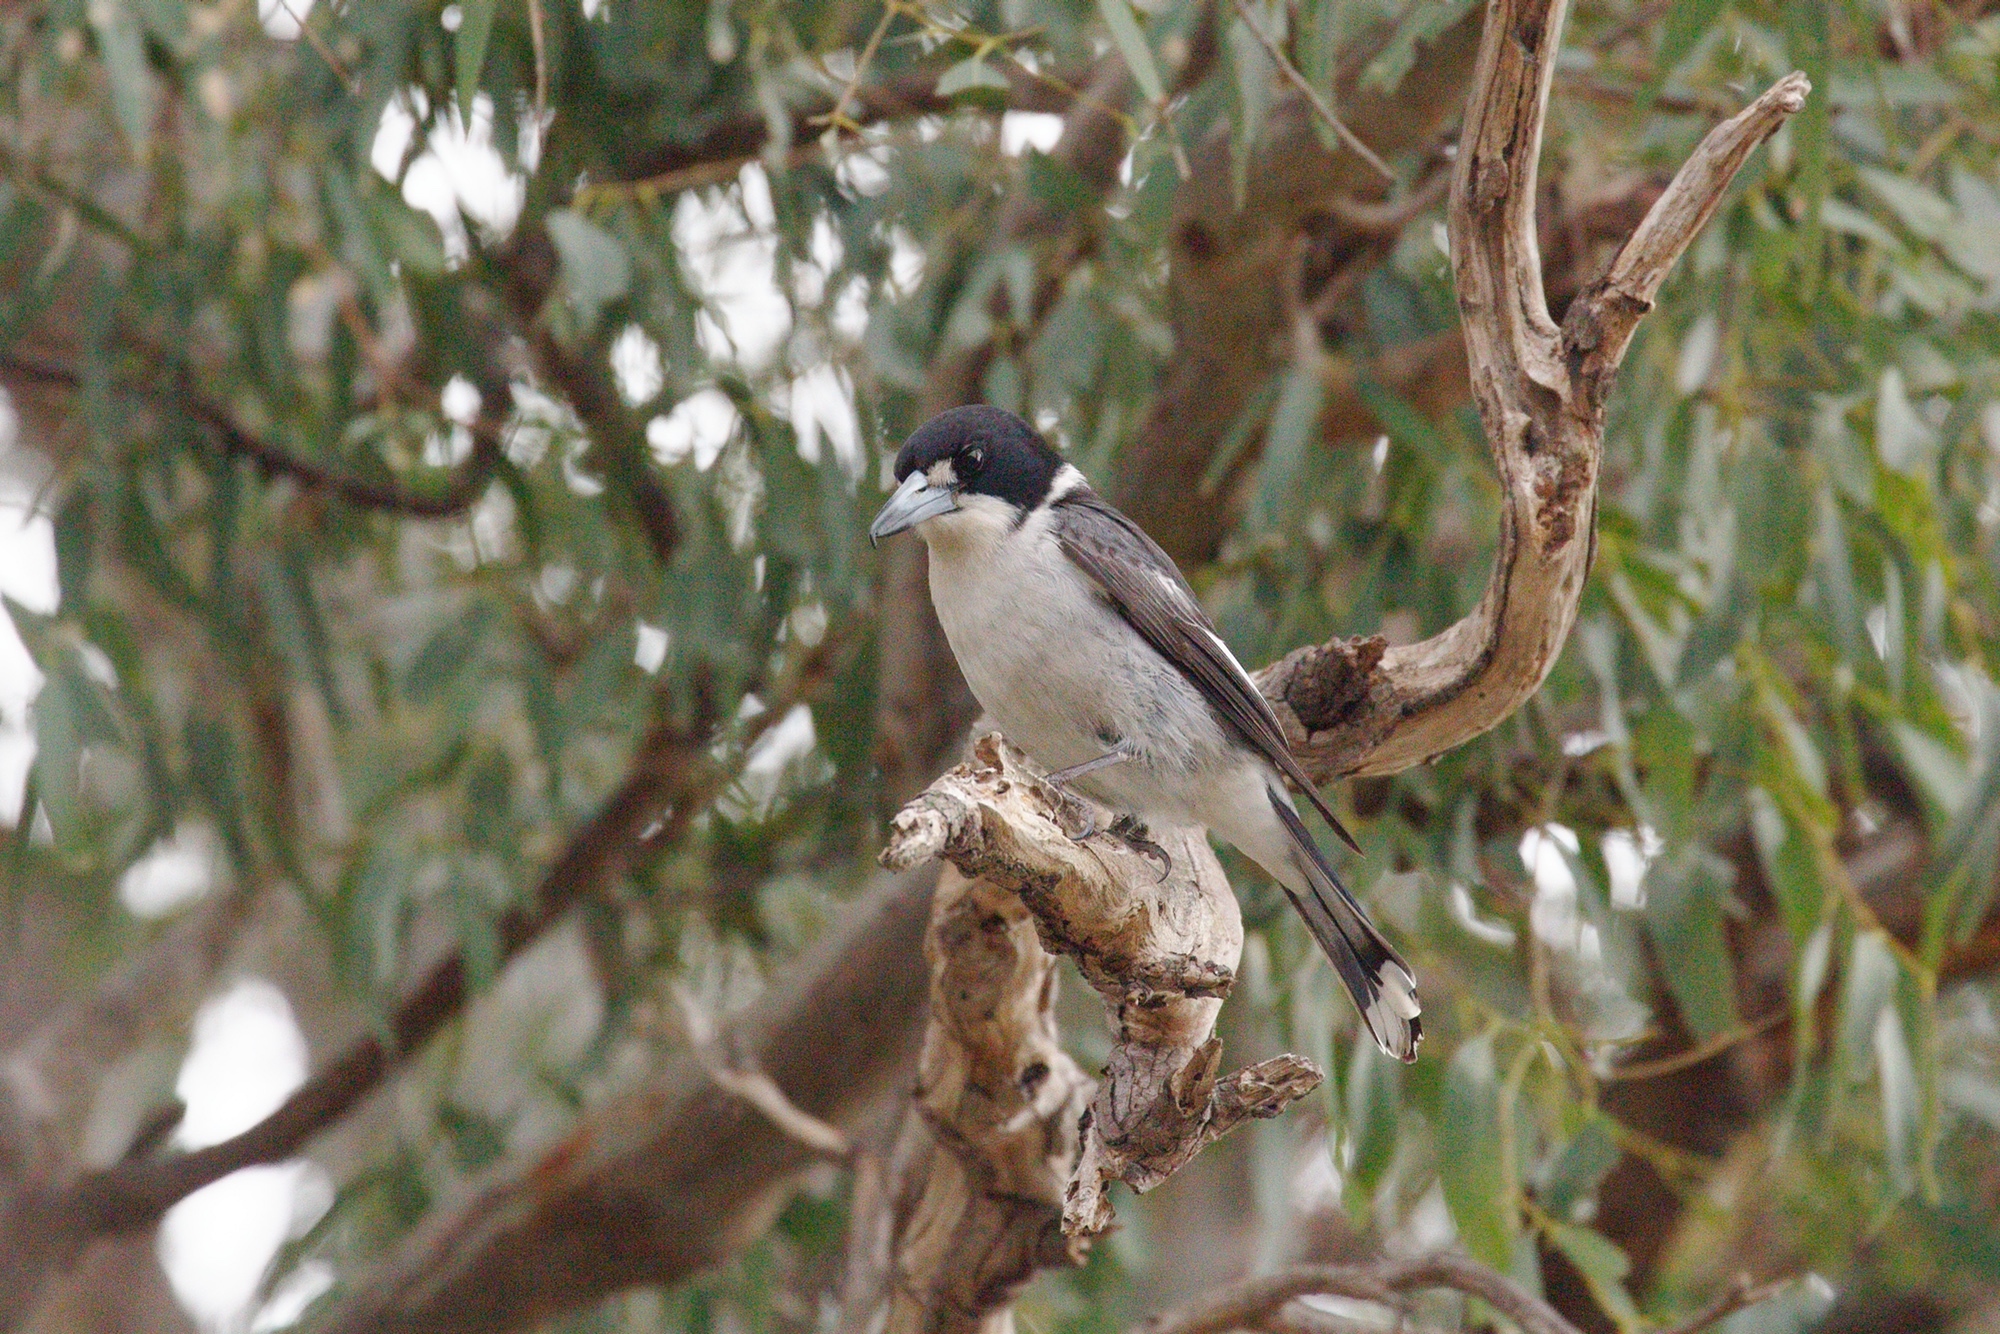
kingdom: Animalia
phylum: Chordata
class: Aves
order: Passeriformes
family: Cracticidae
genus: Cracticus
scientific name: Cracticus torquatus
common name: Grey butcherbird
